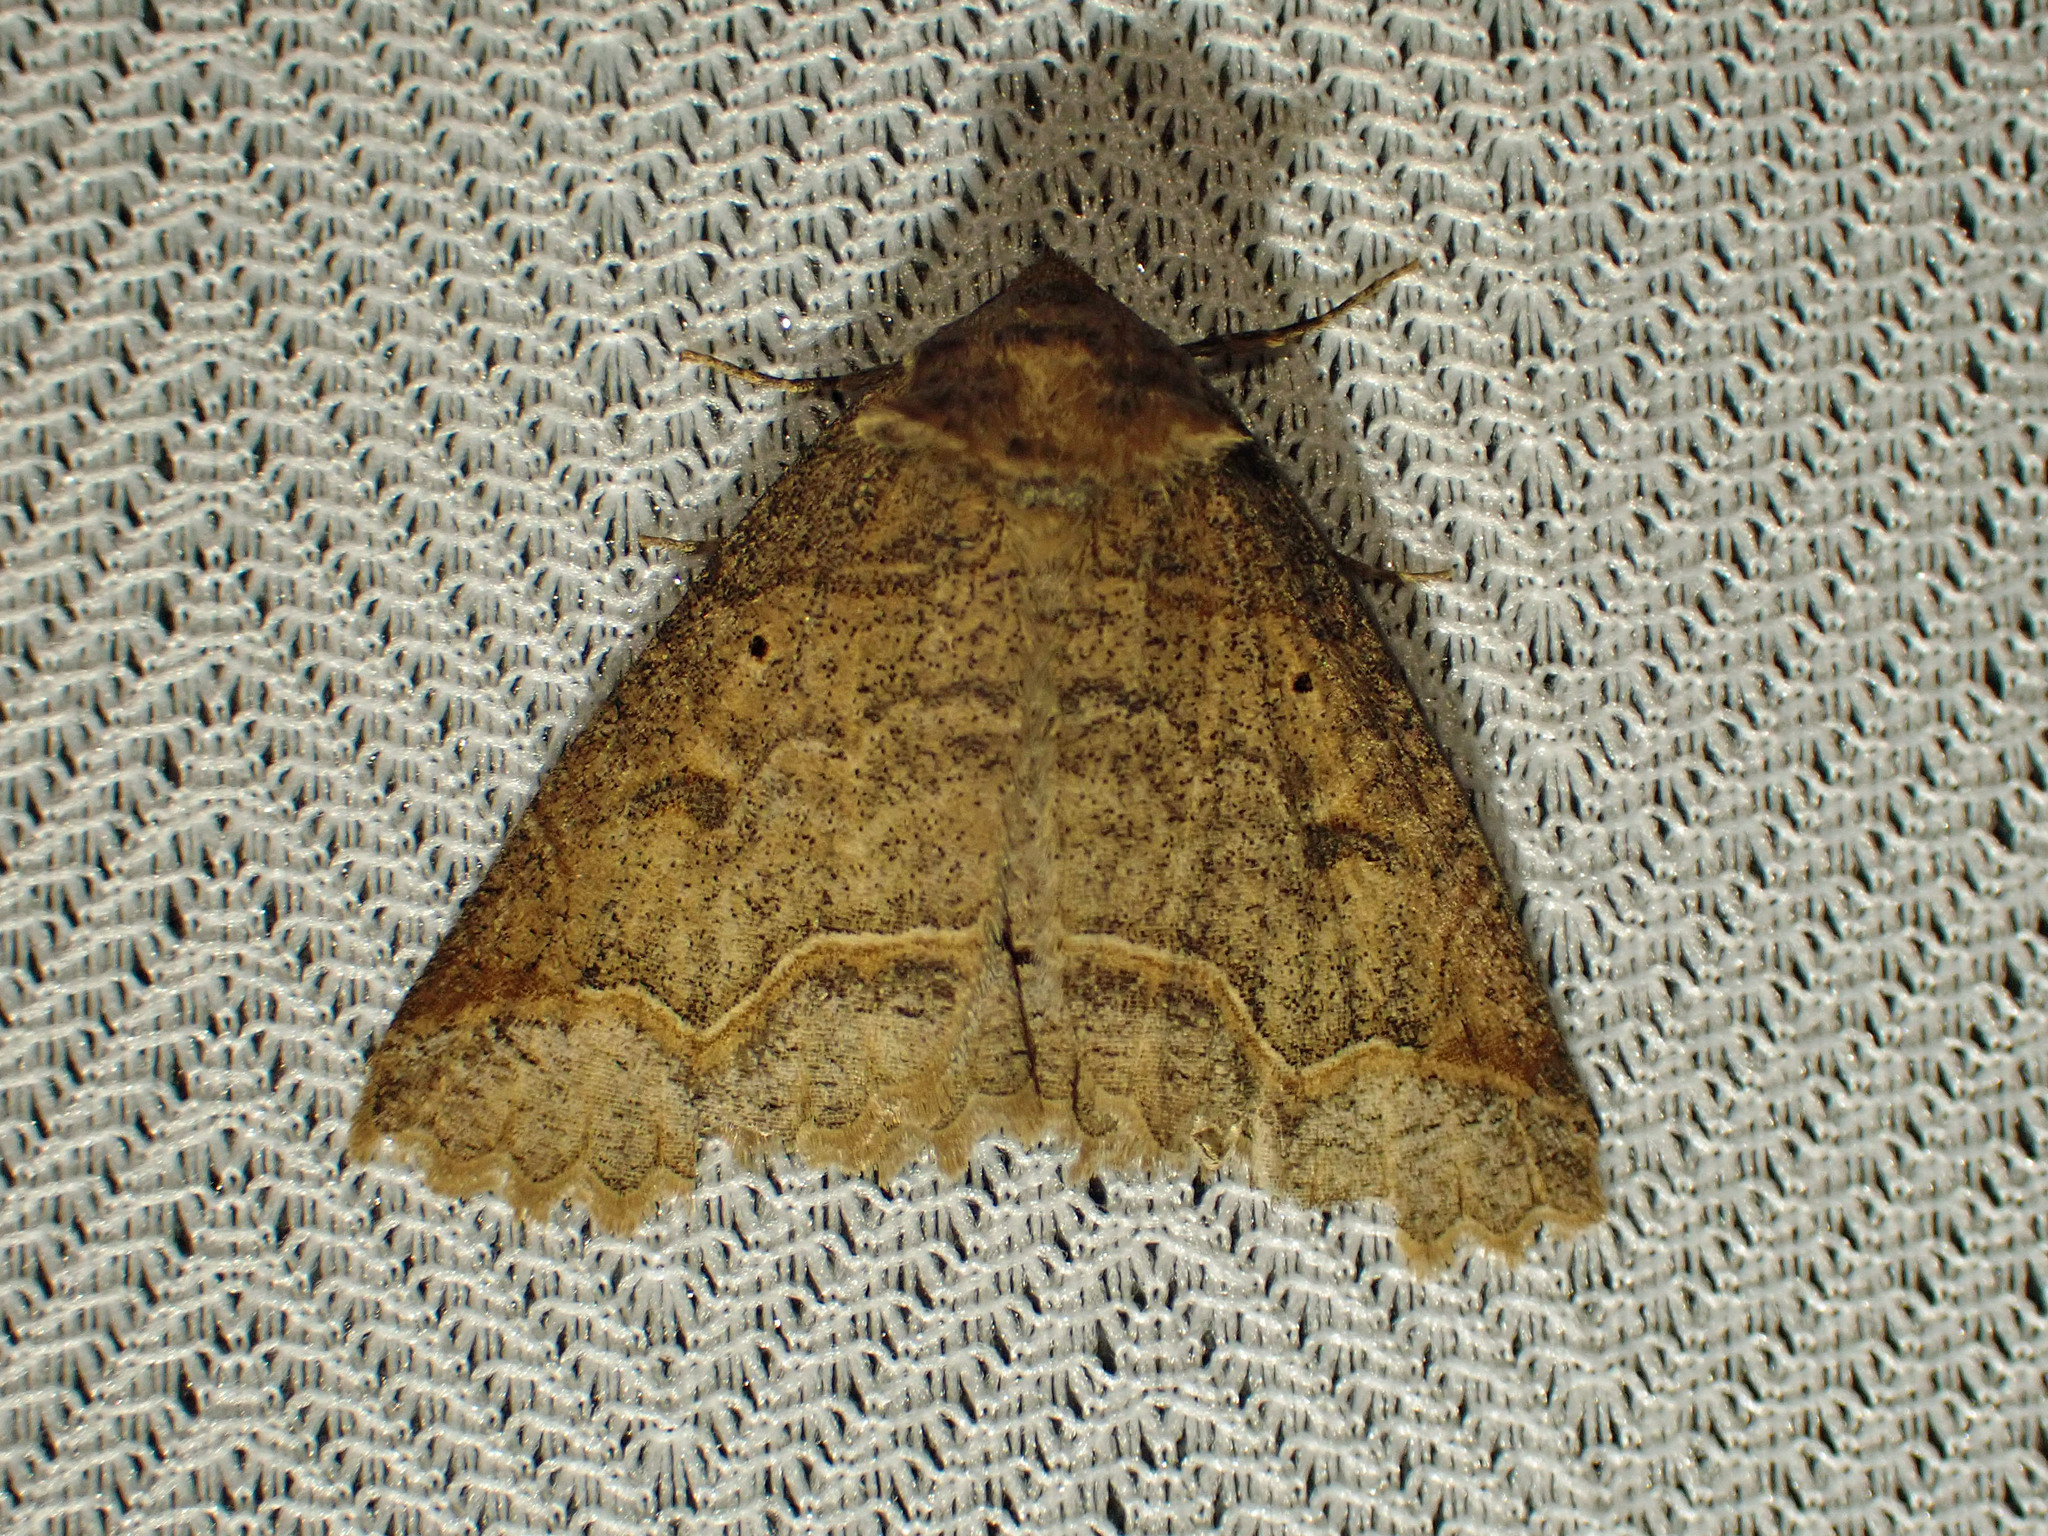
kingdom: Animalia
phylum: Arthropoda
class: Insecta
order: Lepidoptera
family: Erebidae
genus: Zale
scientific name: Zale unilineata
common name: One-lined zale moth
